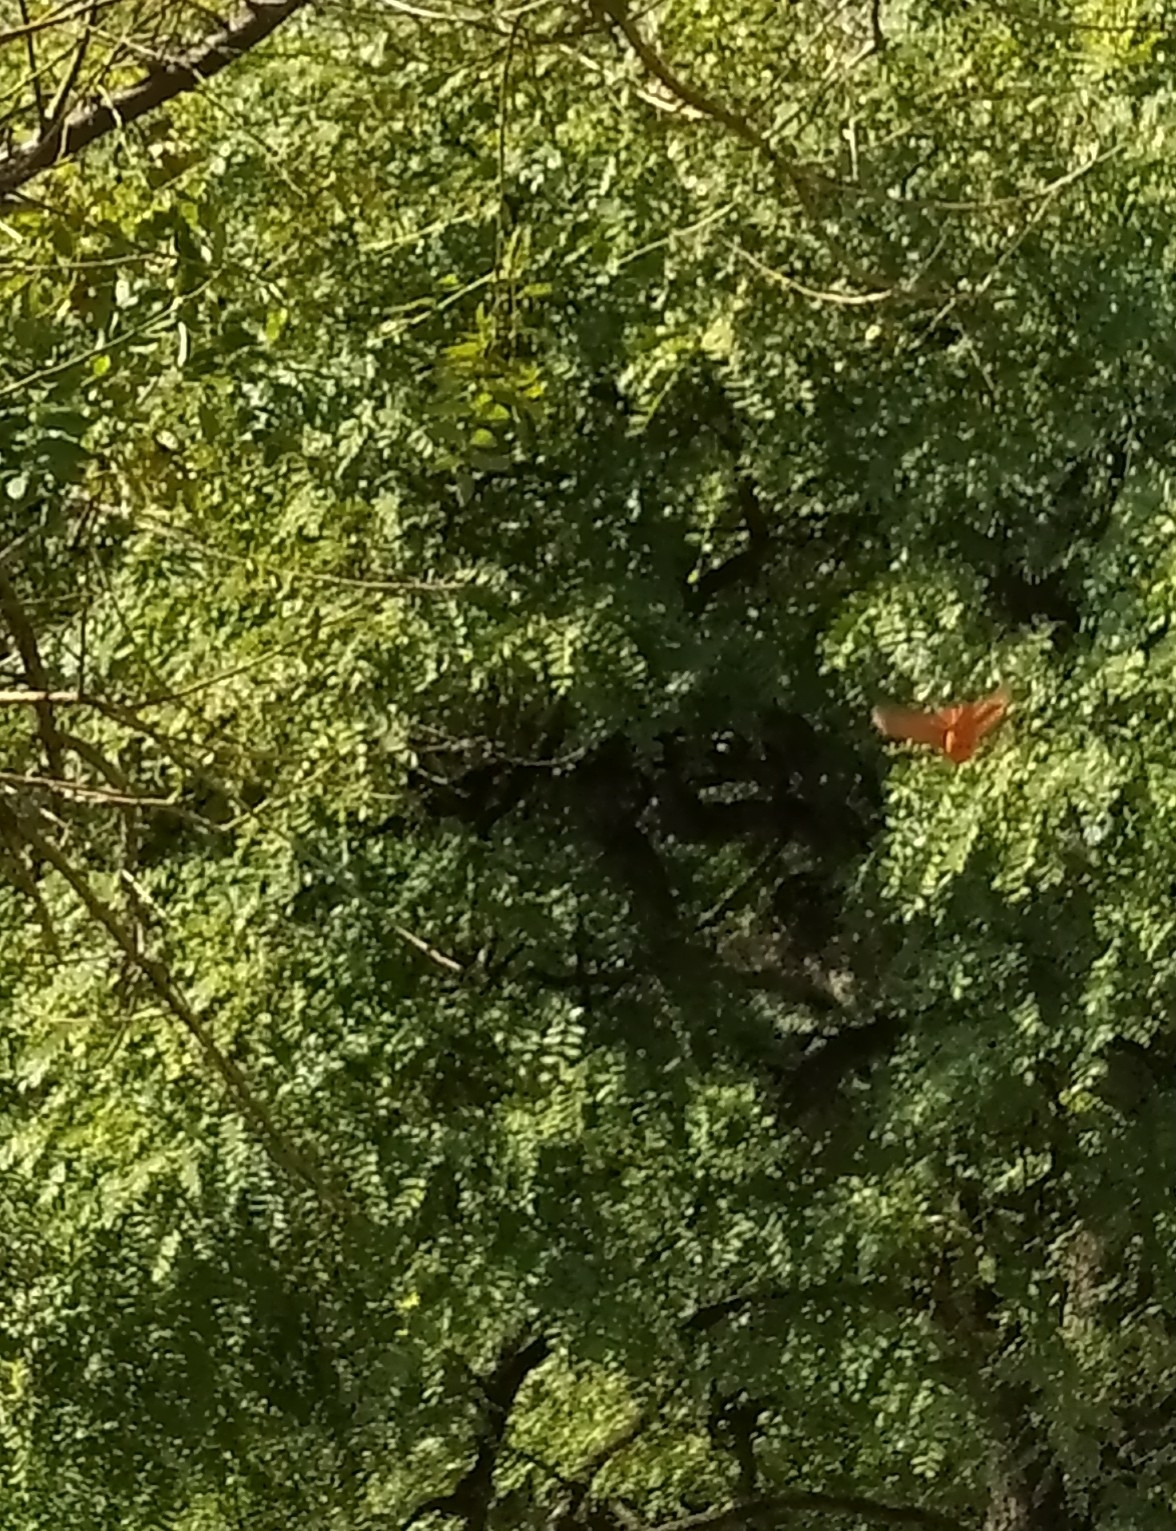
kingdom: Animalia
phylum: Chordata
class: Aves
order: Passeriformes
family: Cardinalidae
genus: Piranga
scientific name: Piranga flava
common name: Red tanager
